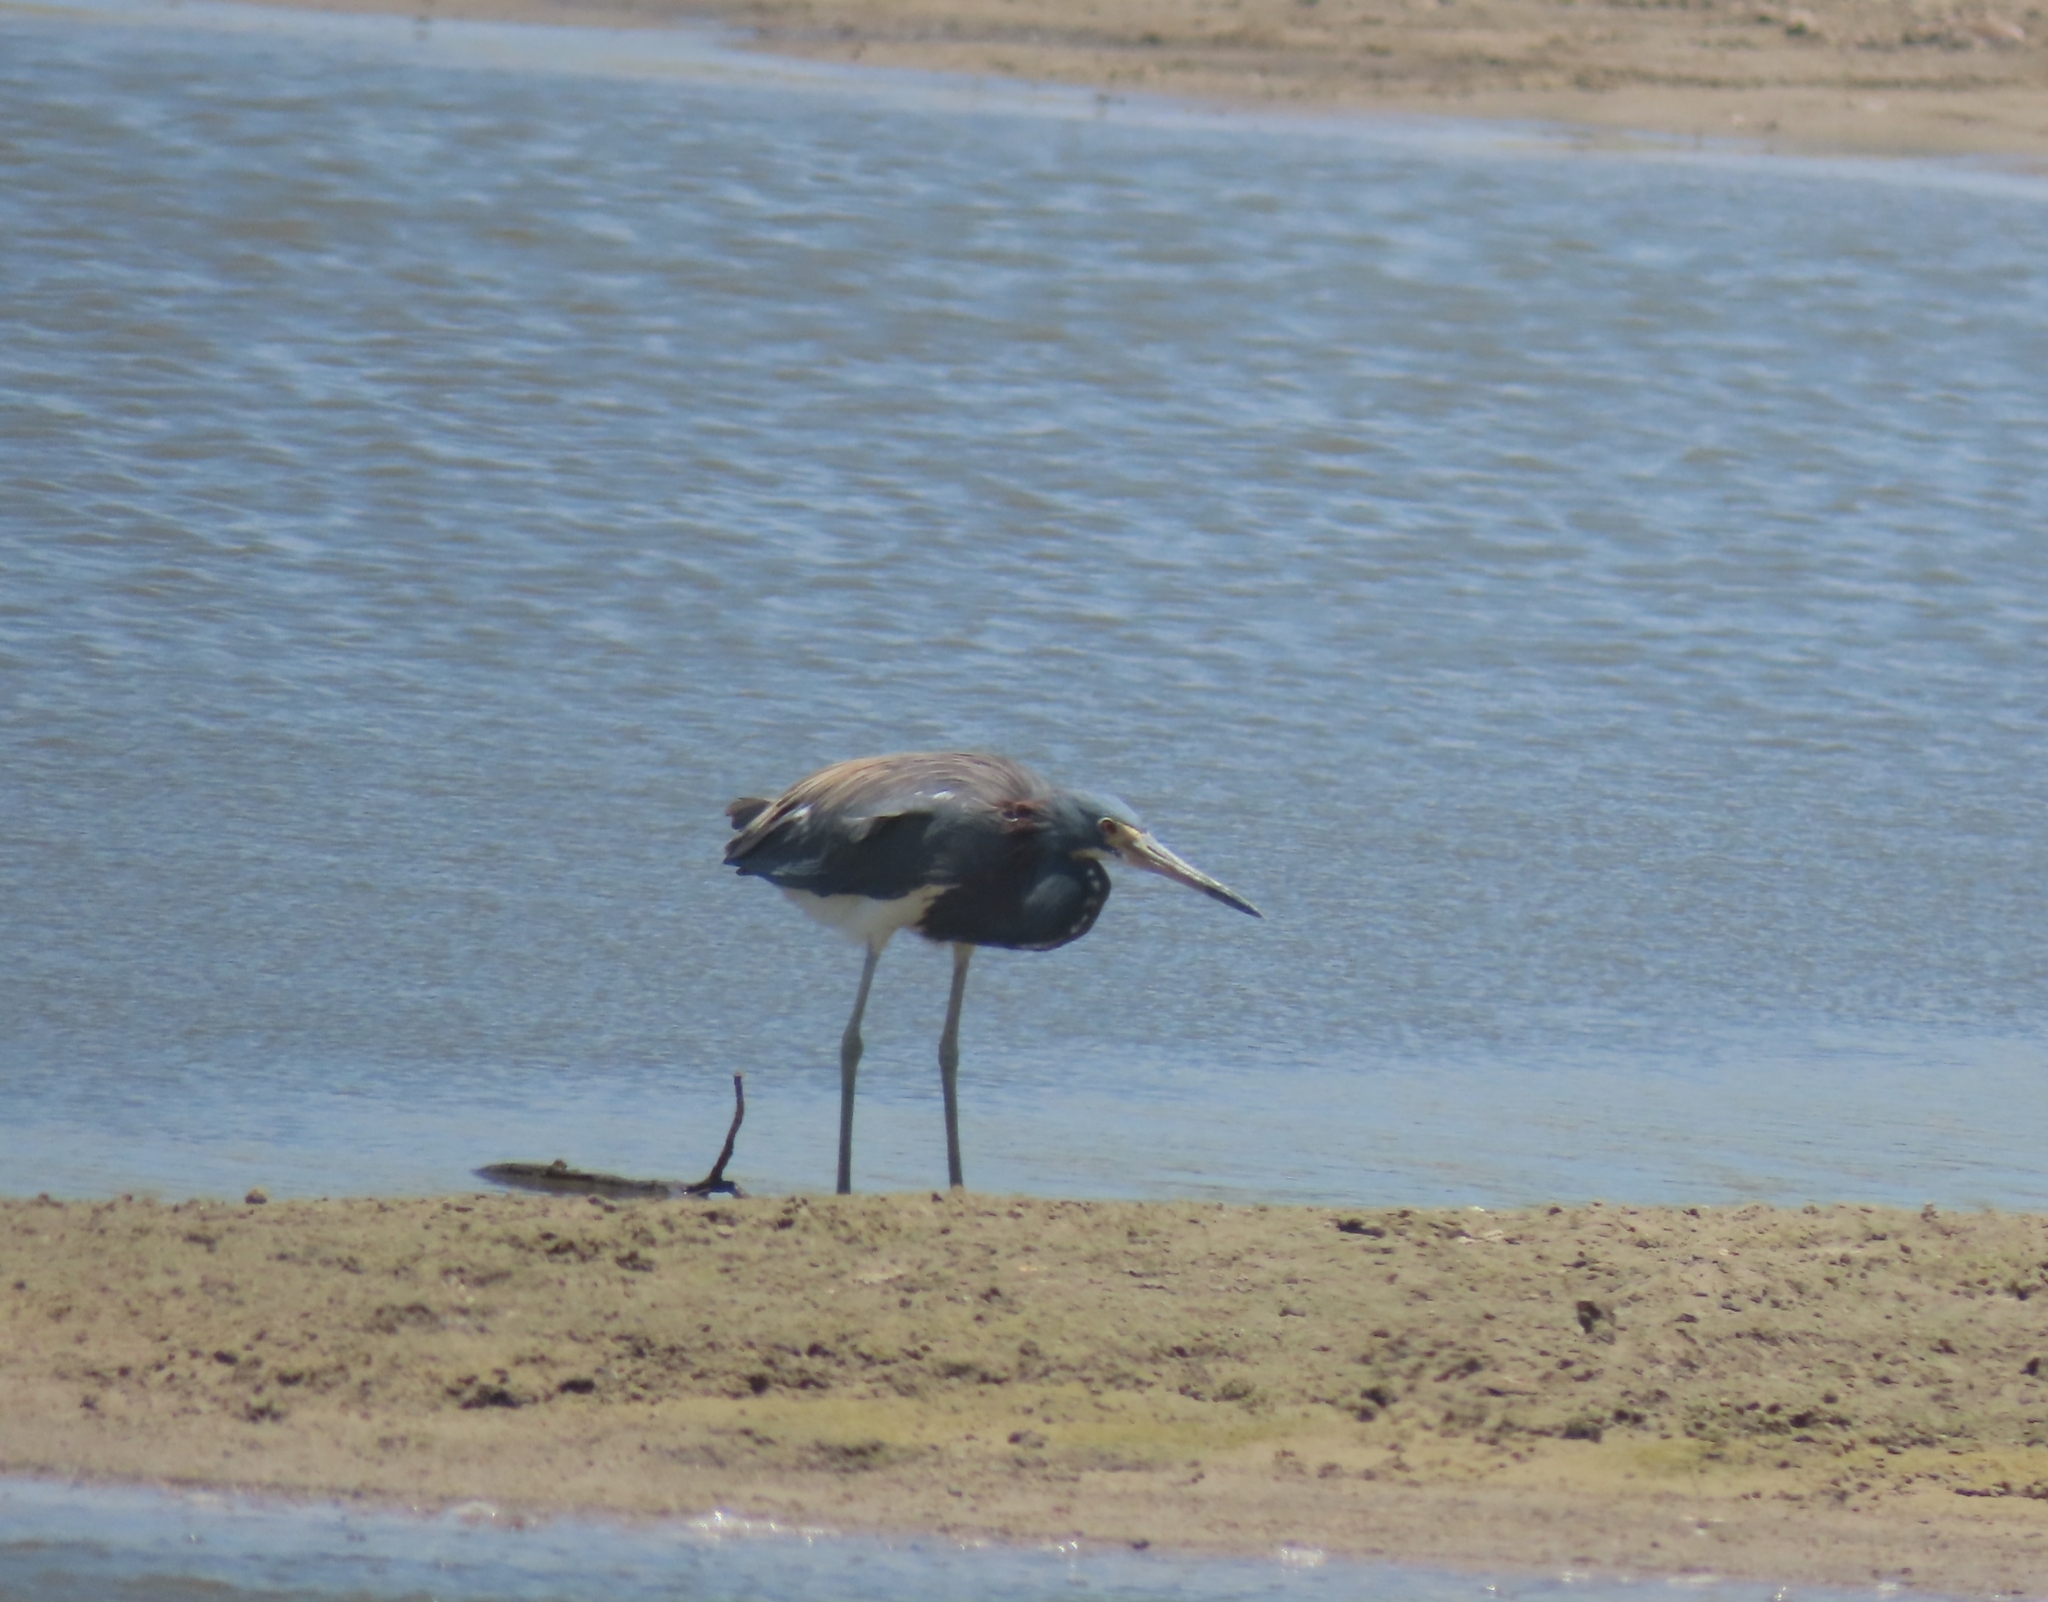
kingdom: Animalia
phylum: Chordata
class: Aves
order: Pelecaniformes
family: Ardeidae
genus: Egretta
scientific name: Egretta tricolor
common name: Tricolored heron
